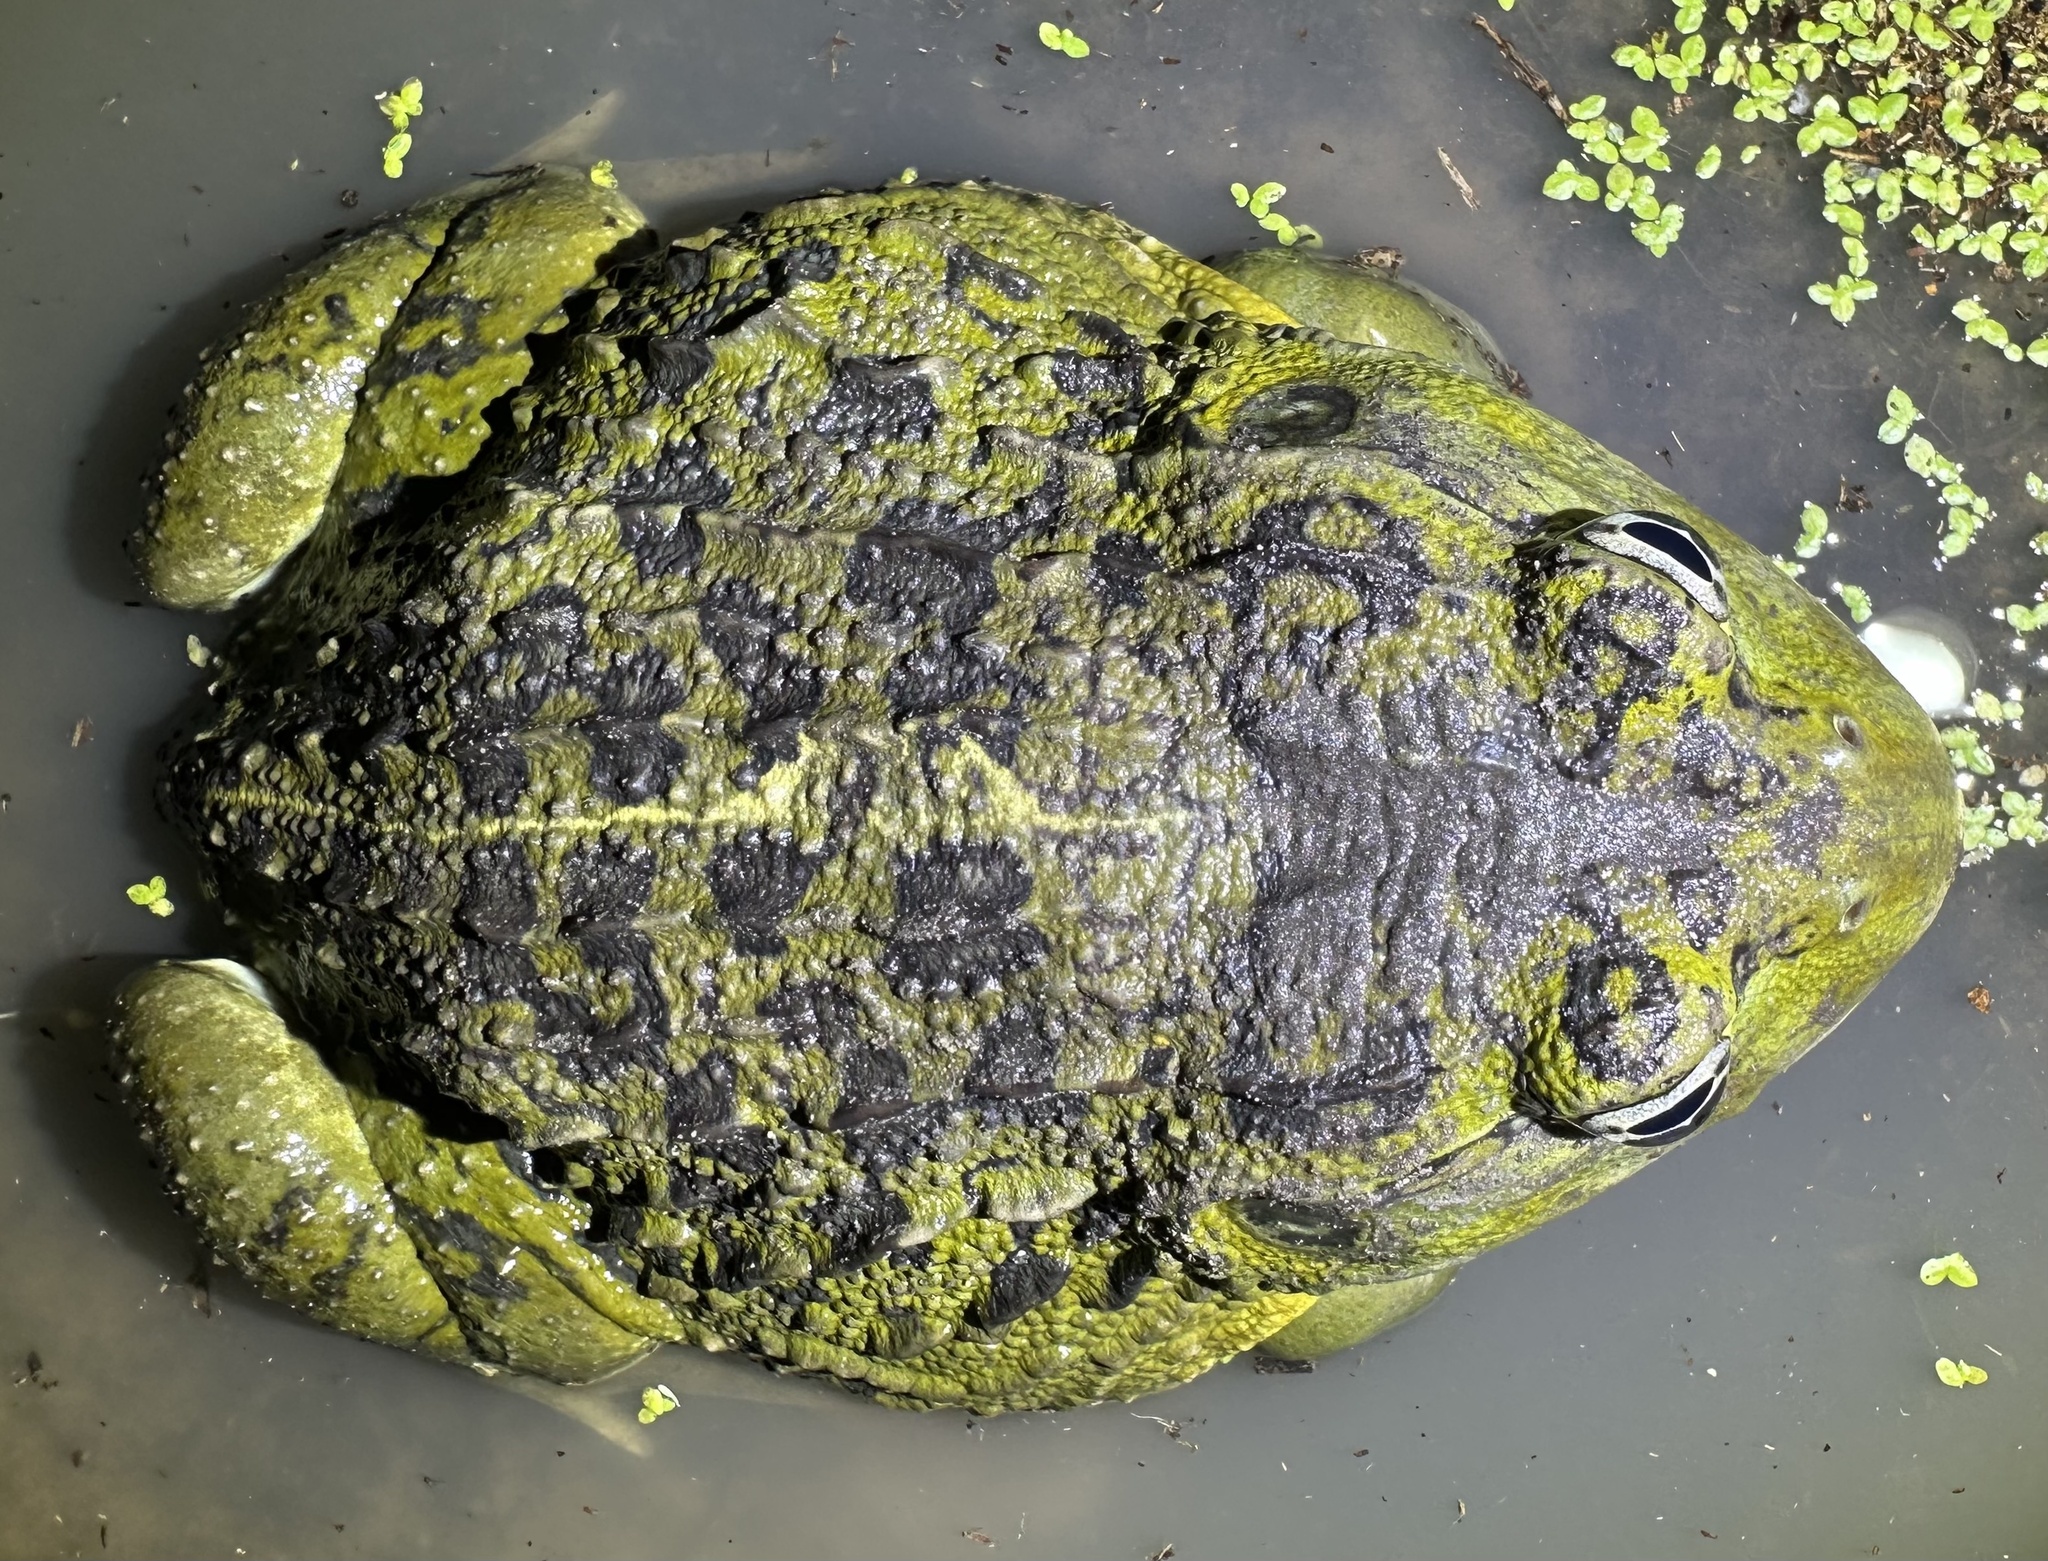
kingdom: Animalia
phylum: Chordata
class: Amphibia
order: Anura
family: Pyxicephalidae
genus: Pyxicephalus
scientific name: Pyxicephalus
